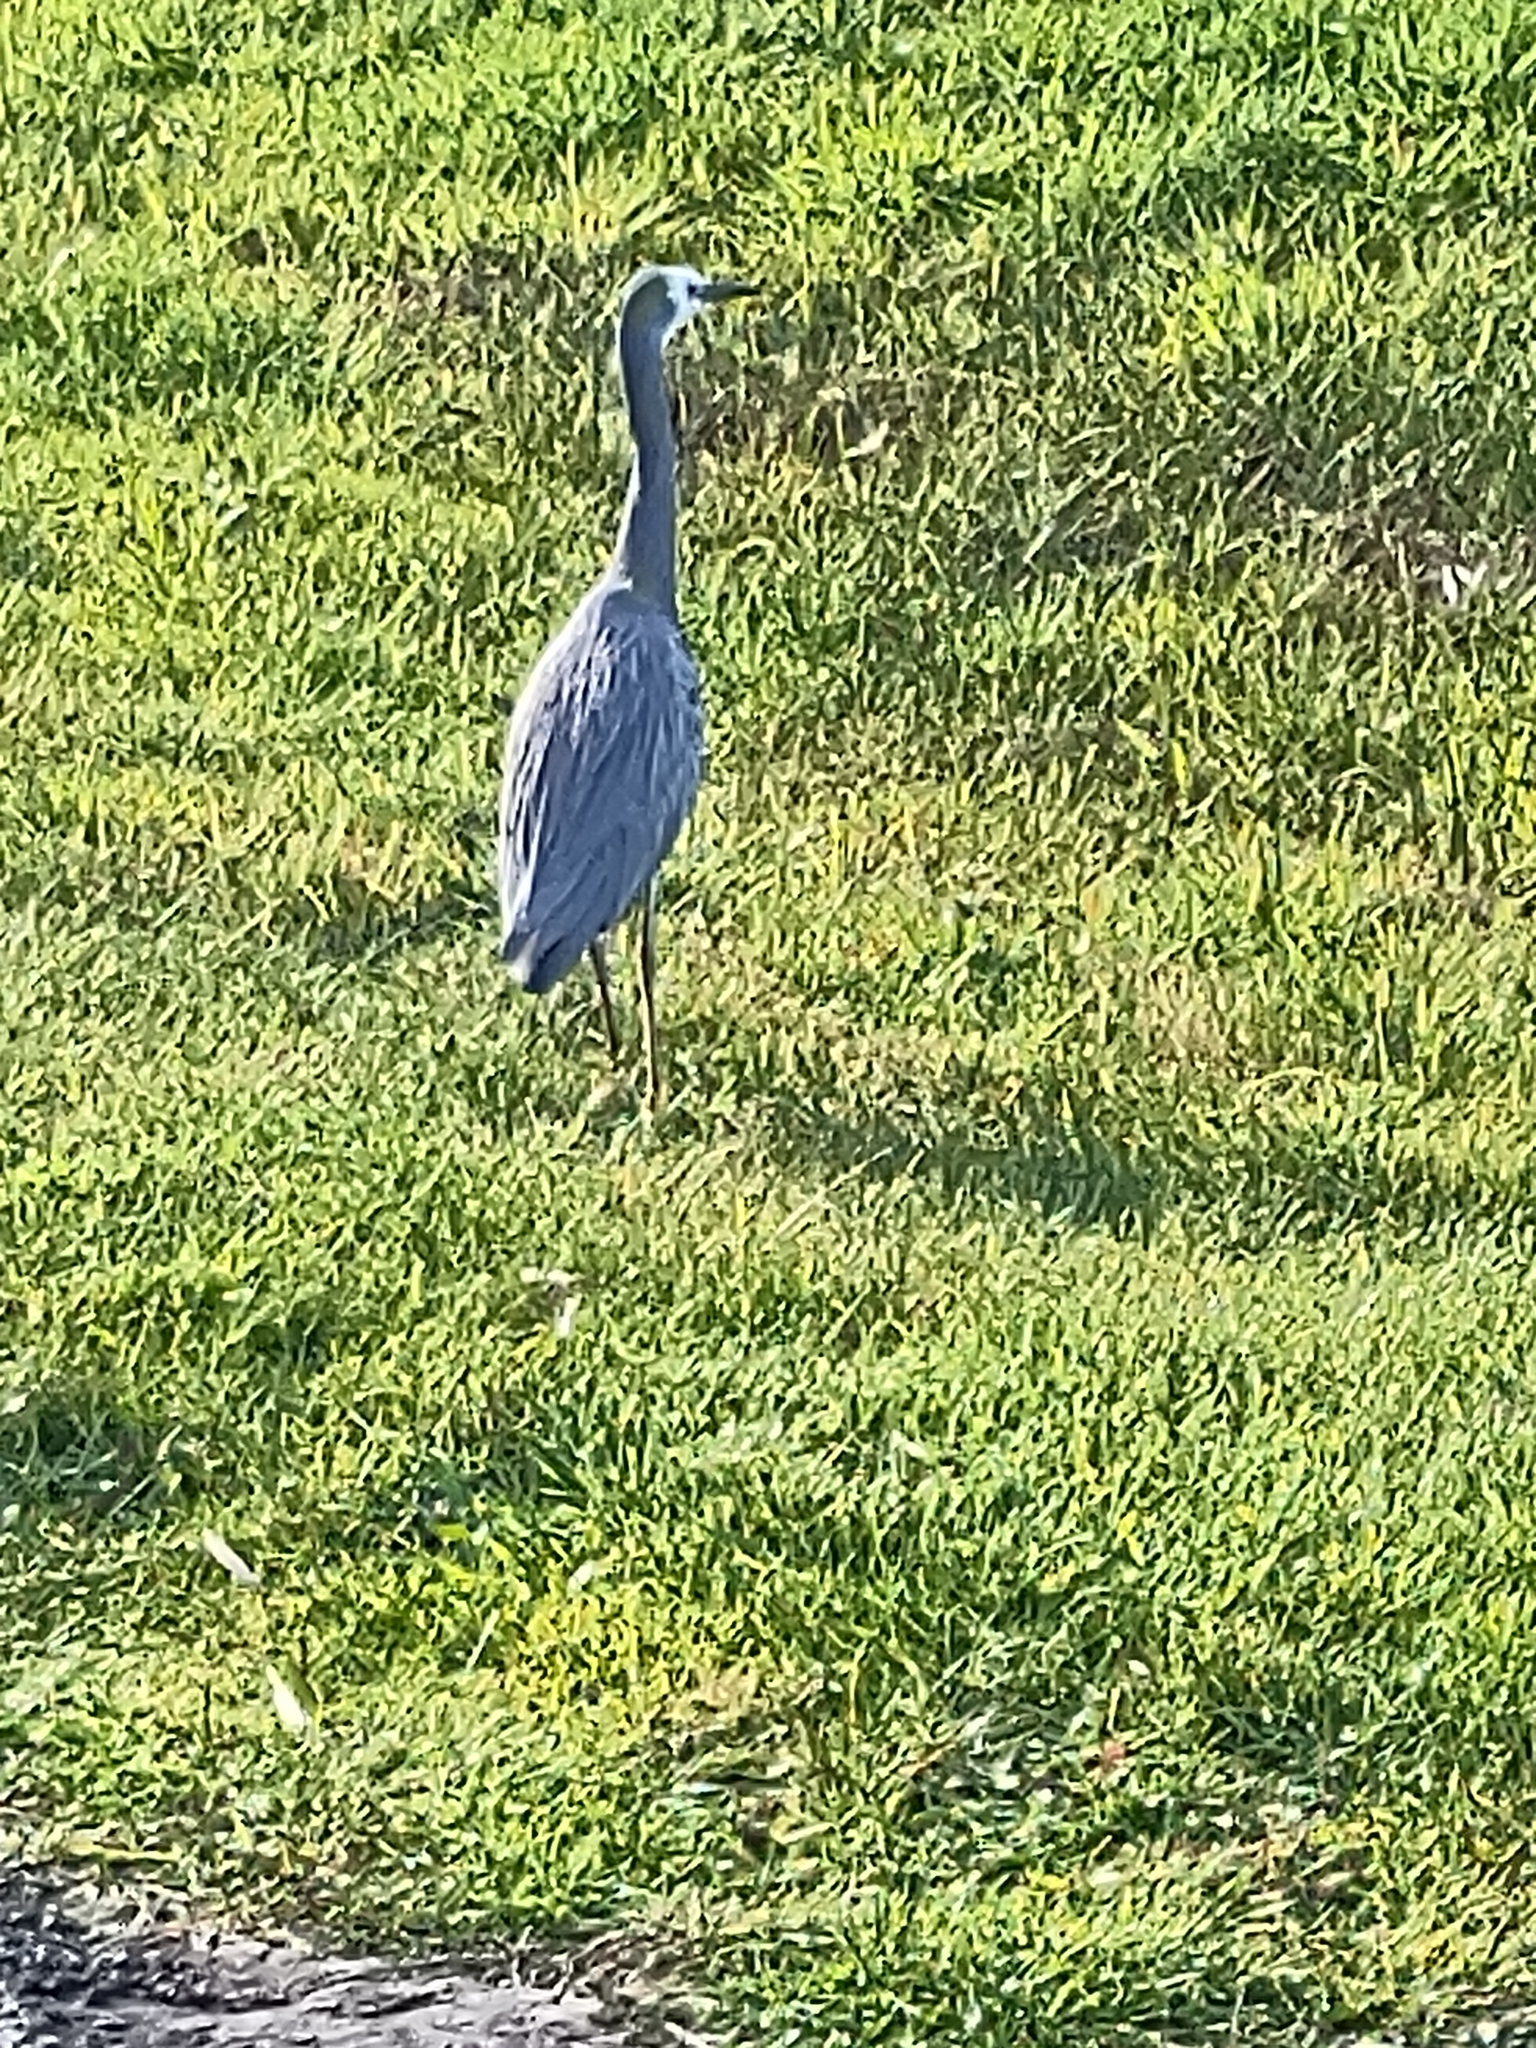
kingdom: Animalia
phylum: Chordata
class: Aves
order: Pelecaniformes
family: Ardeidae
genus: Egretta
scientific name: Egretta novaehollandiae
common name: White-faced heron
